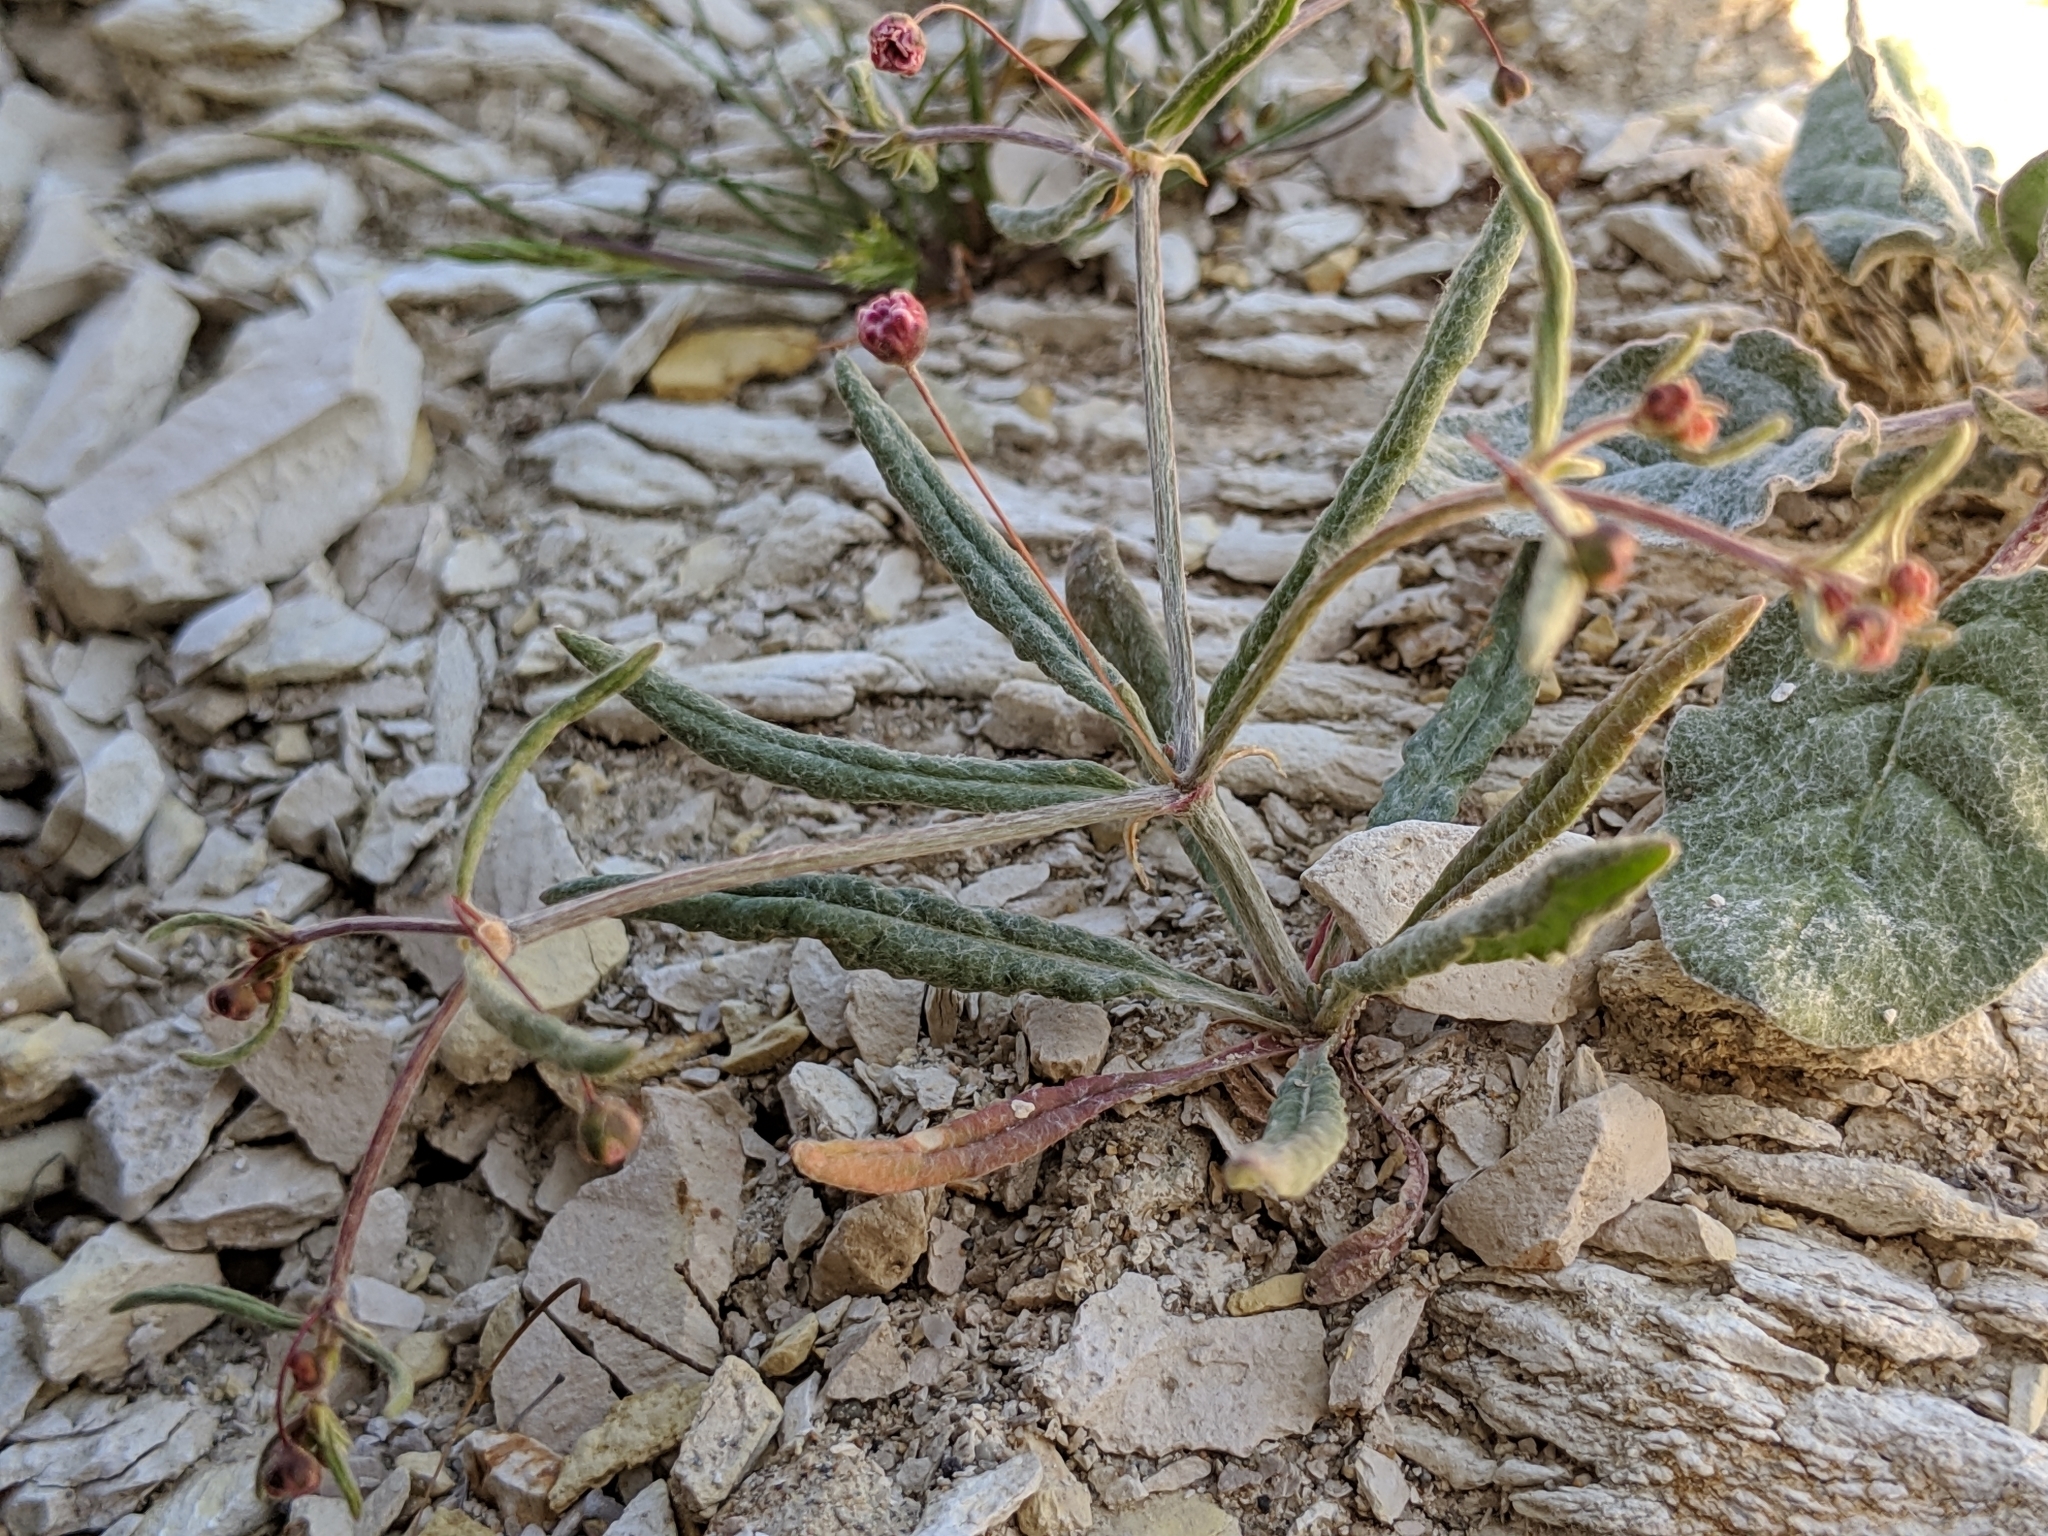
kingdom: Plantae
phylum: Tracheophyta
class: Magnoliopsida
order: Caryophyllales
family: Polygonaceae
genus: Eriogonum
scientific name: Eriogonum angulosum
